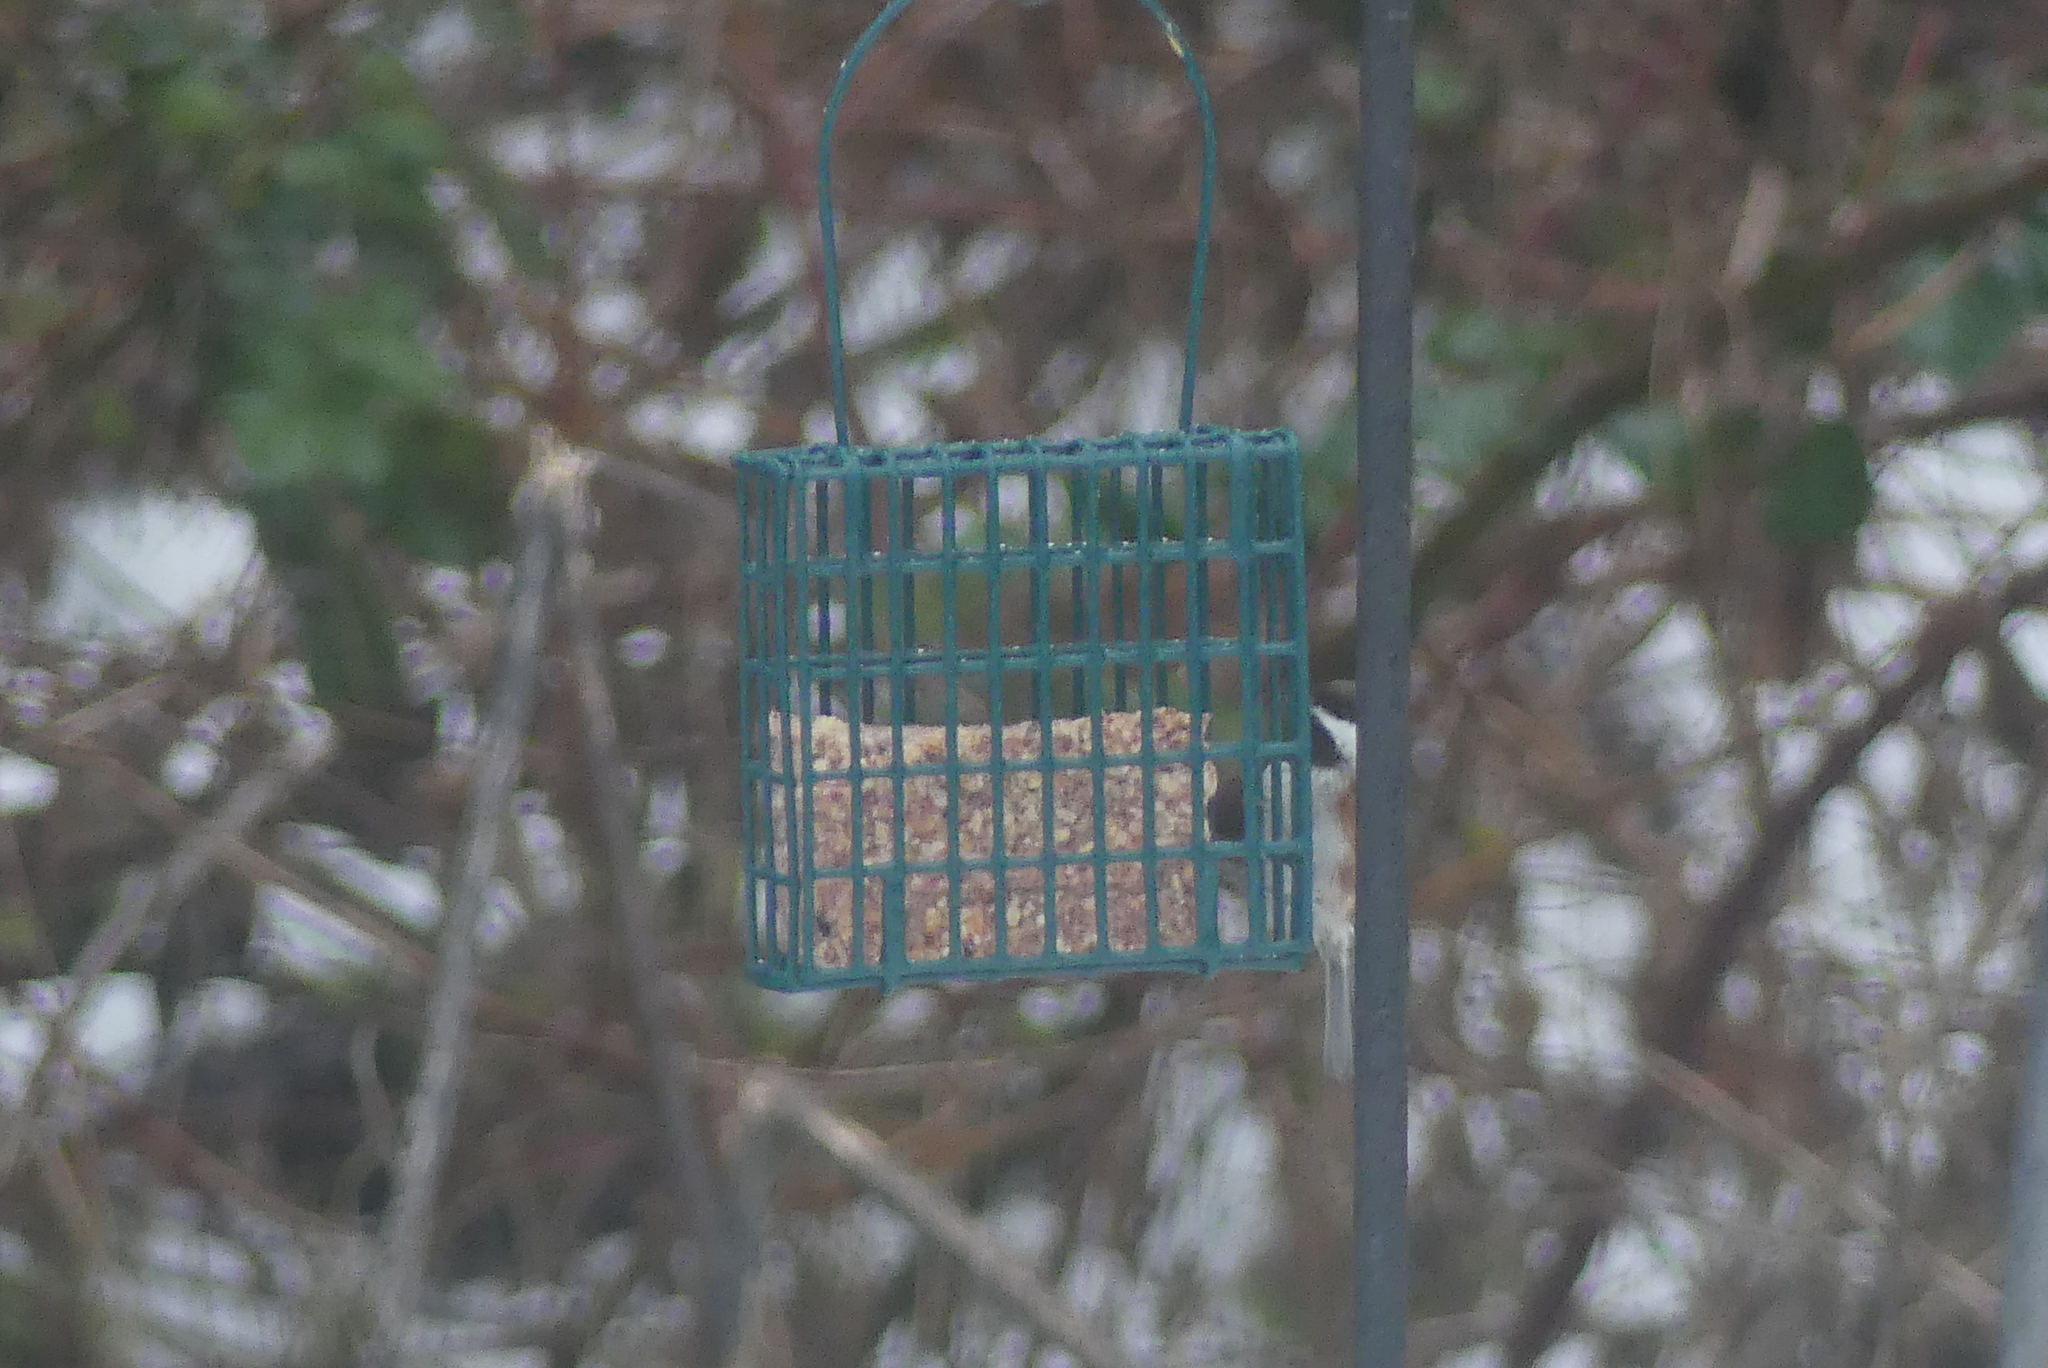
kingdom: Animalia
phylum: Chordata
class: Aves
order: Passeriformes
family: Paridae
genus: Poecile
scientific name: Poecile rufescens
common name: Chestnut-backed chickadee
